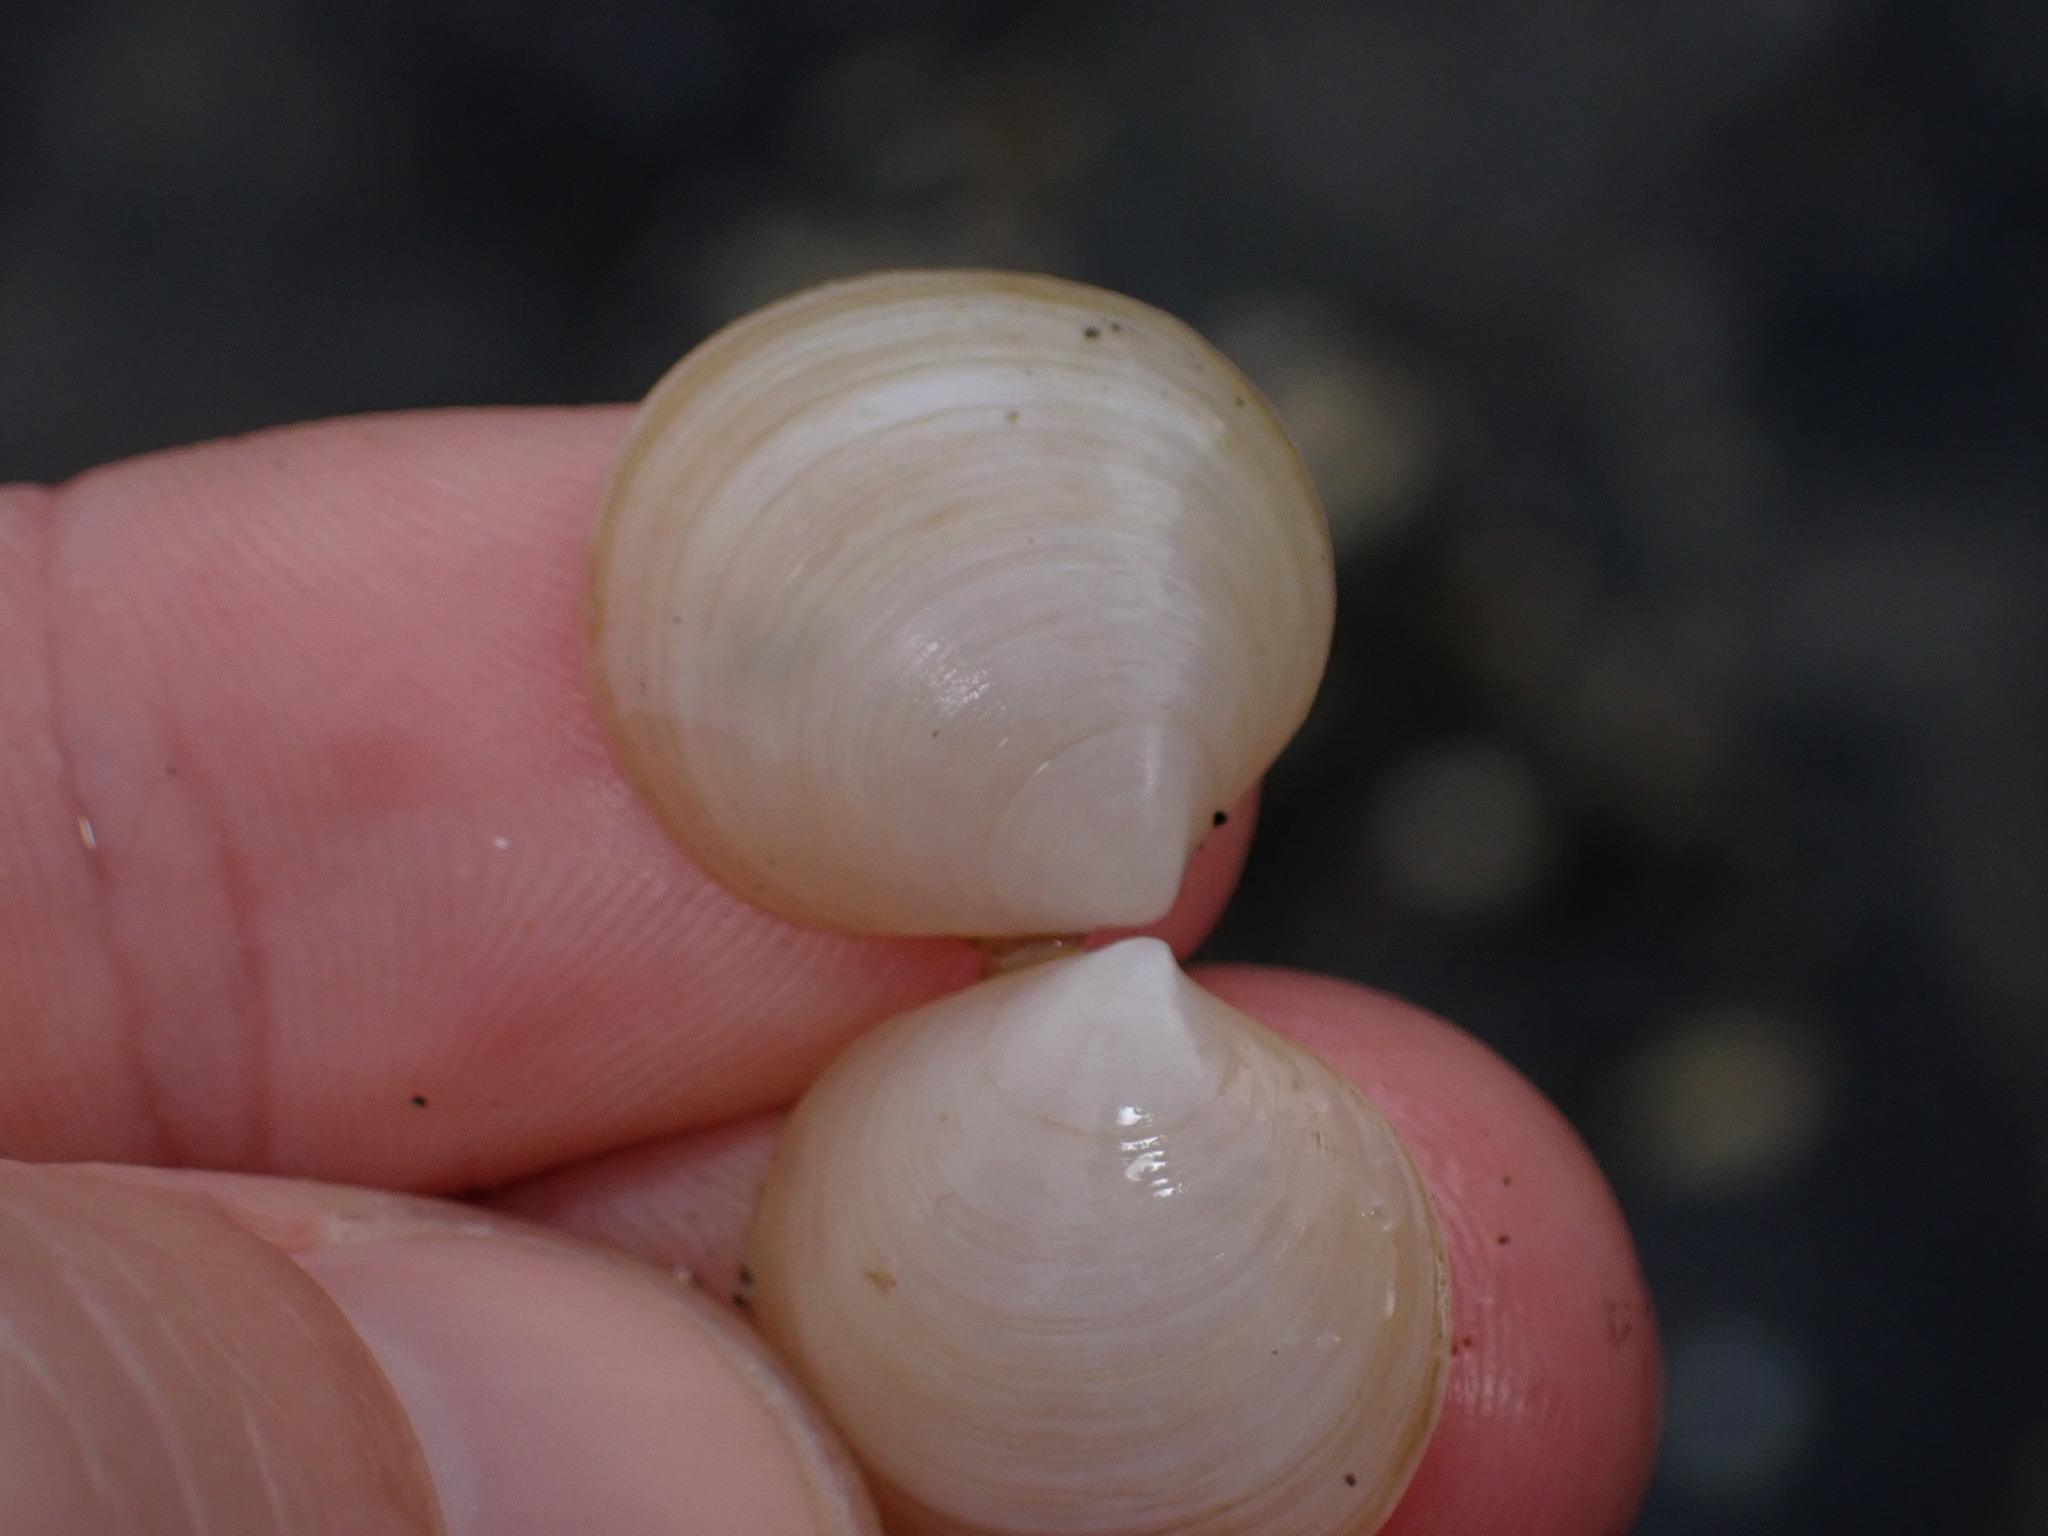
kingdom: Animalia
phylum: Mollusca
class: Bivalvia
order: Venerida
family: Ungulinidae
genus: Zemysia
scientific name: Zemysia zelandica
